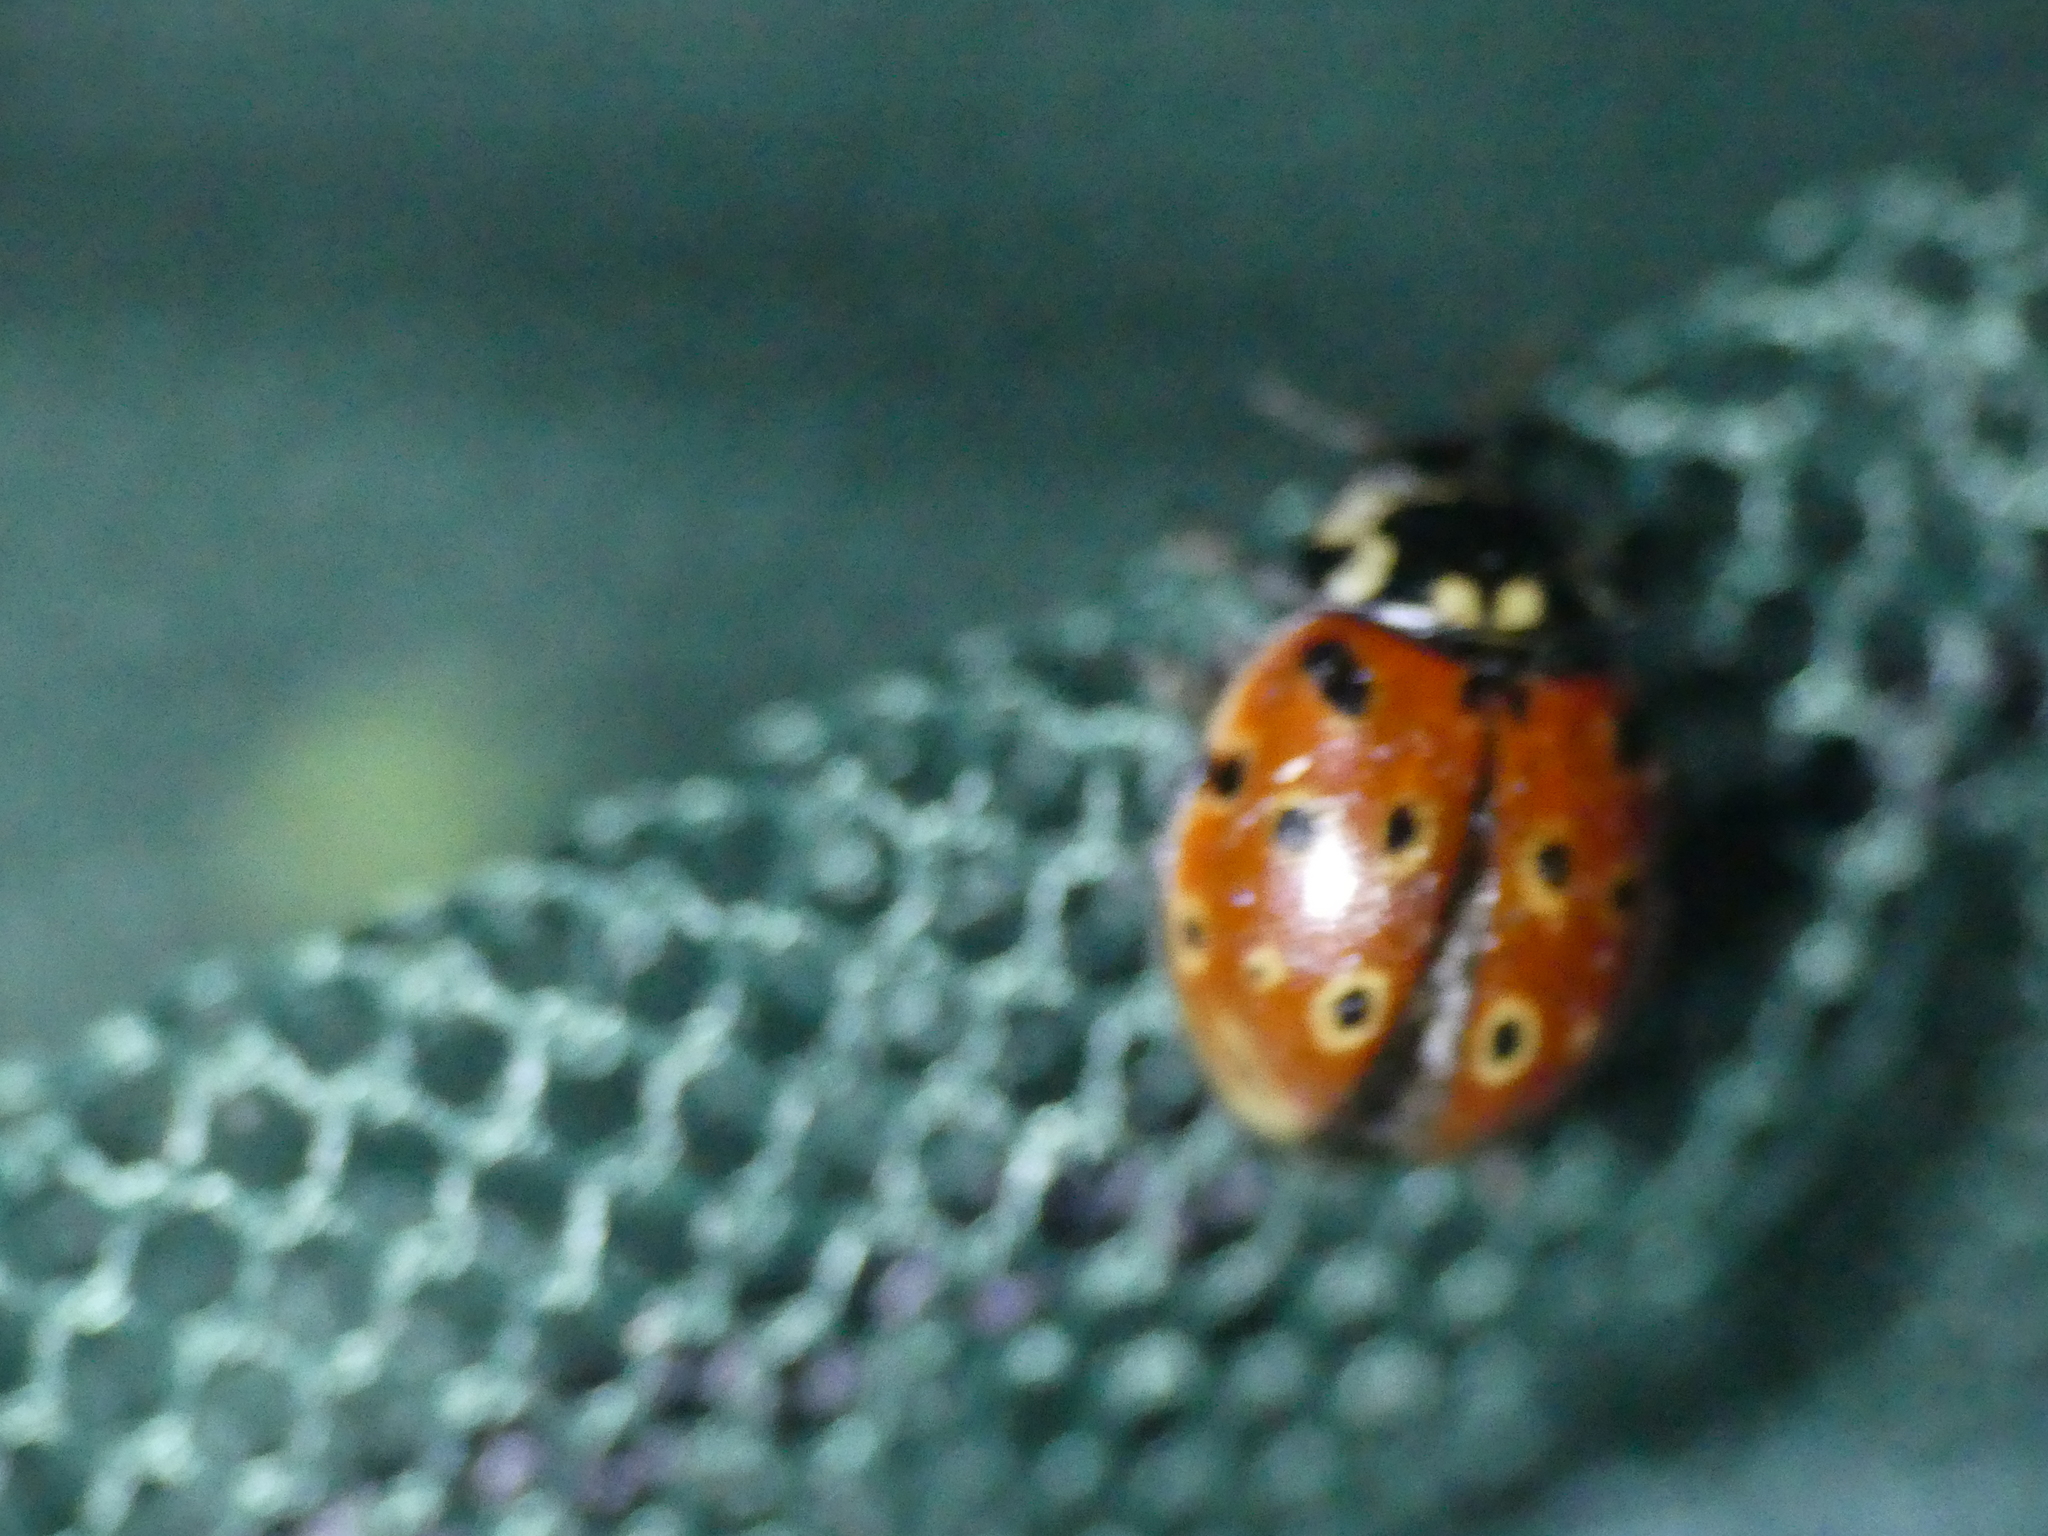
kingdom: Animalia
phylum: Arthropoda
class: Insecta
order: Coleoptera
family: Coccinellidae
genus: Anatis
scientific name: Anatis ocellata
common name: Eyed ladybird
